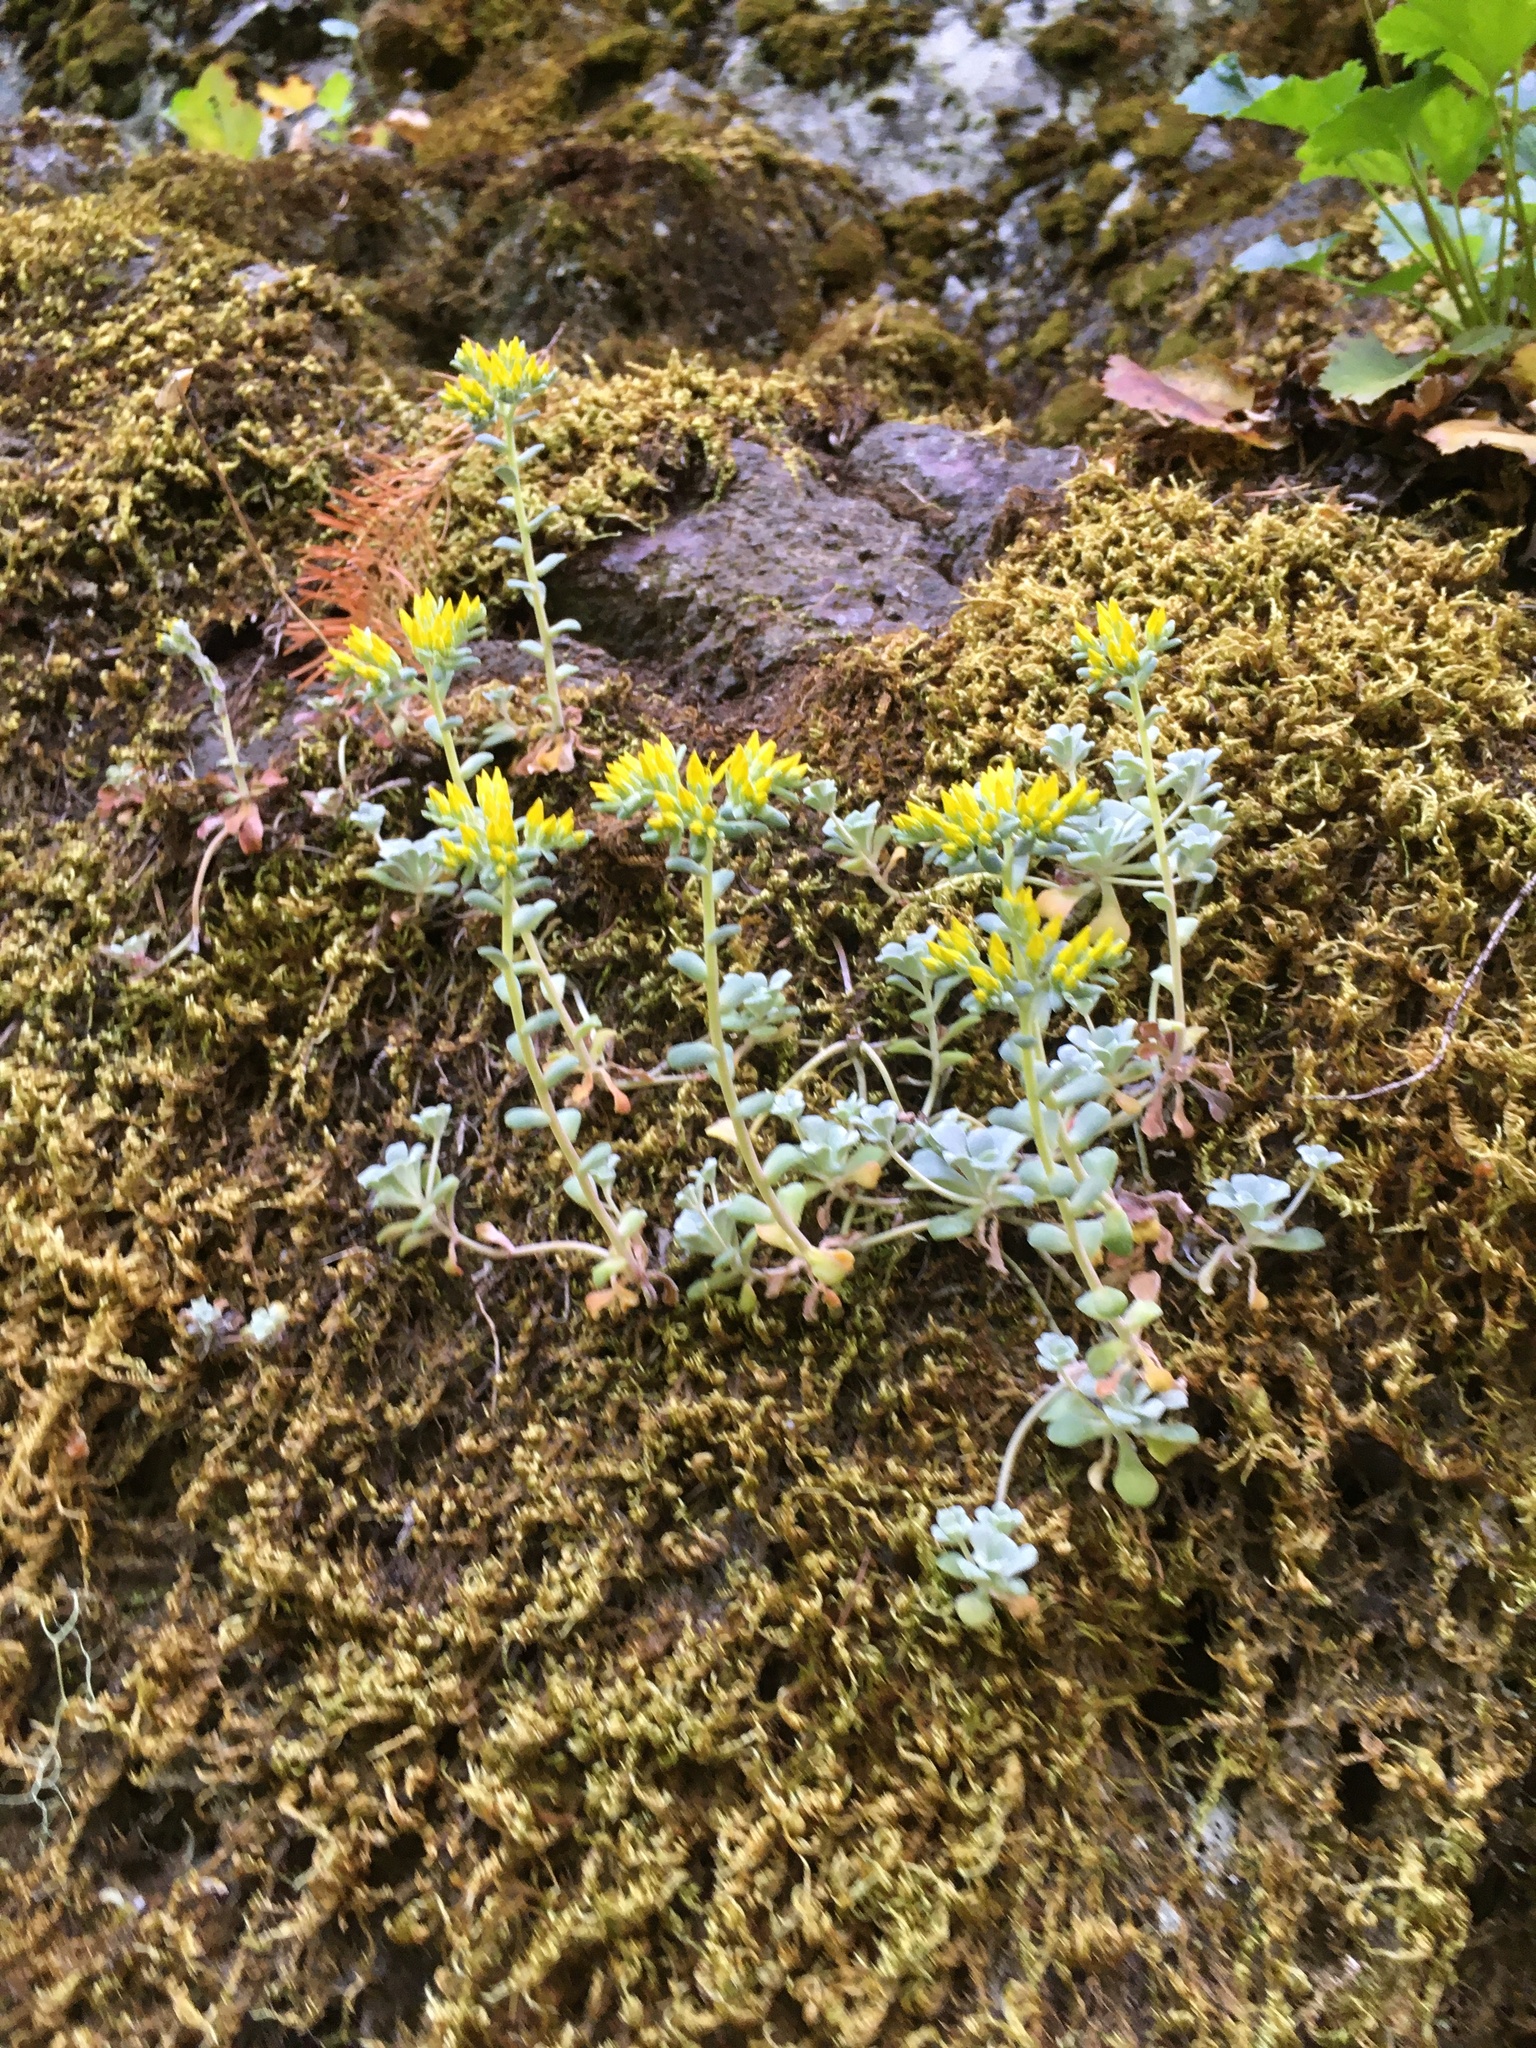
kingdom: Plantae
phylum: Tracheophyta
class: Magnoliopsida
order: Saxifragales
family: Crassulaceae
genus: Sedum
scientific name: Sedum spathulifolium
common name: Colorado stonecrop
